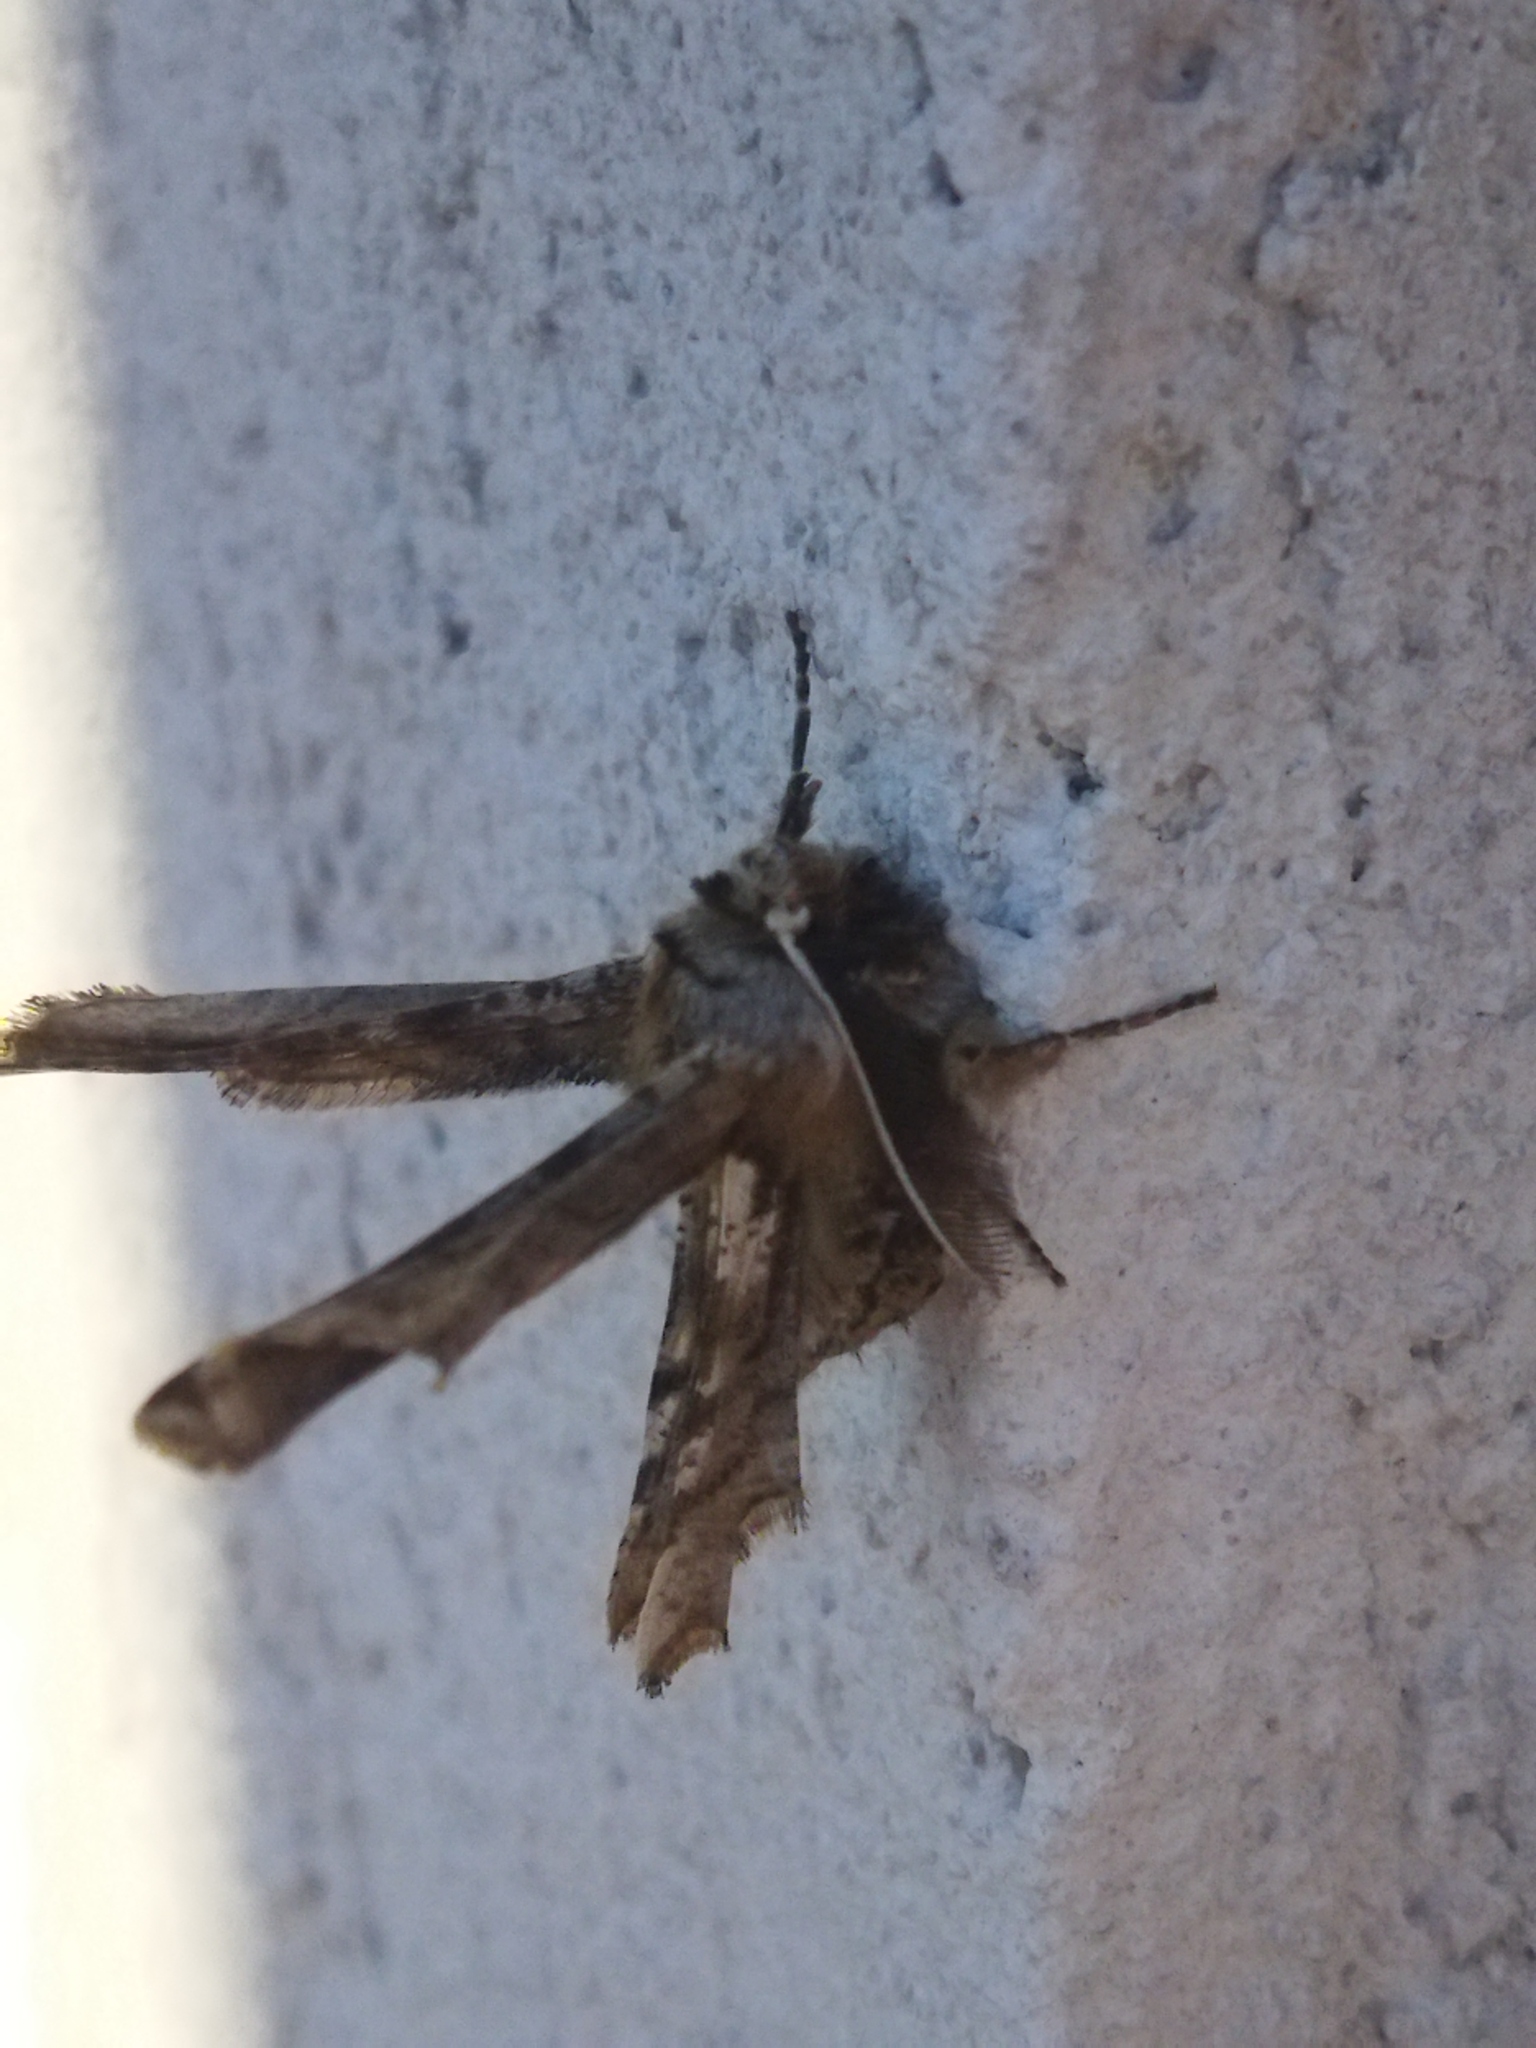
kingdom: Animalia
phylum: Arthropoda
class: Insecta
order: Lepidoptera
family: Geometridae
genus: Apochima
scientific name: Apochima flabellaria
